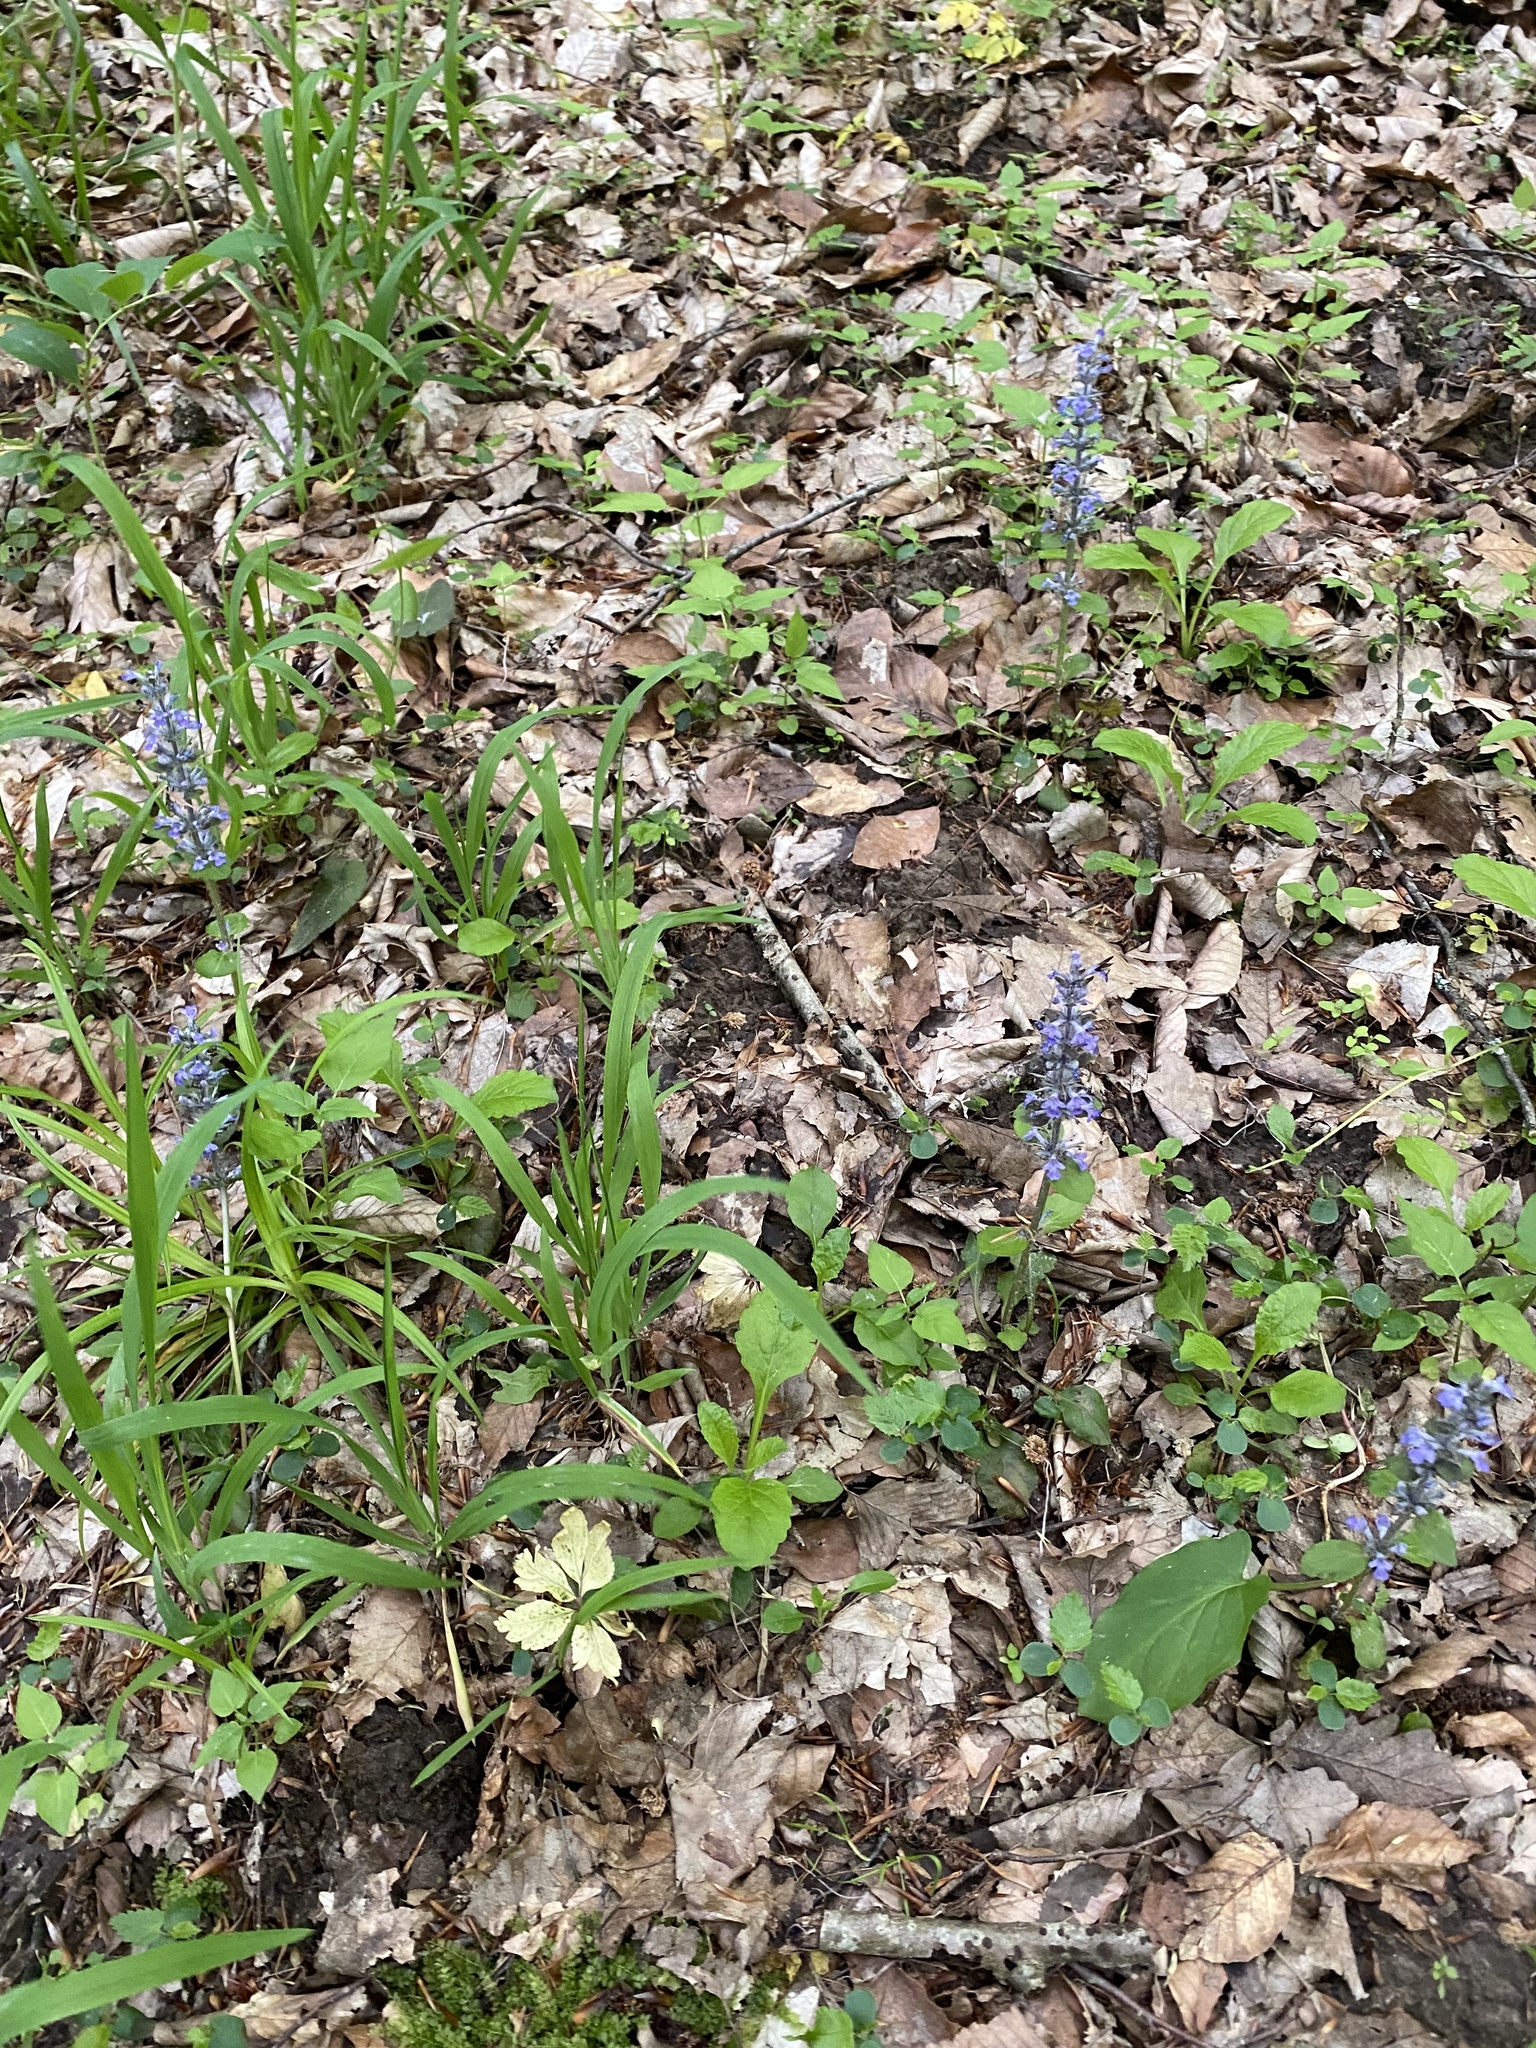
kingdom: Plantae
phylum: Tracheophyta
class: Magnoliopsida
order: Lamiales
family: Lamiaceae
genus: Ajuga
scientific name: Ajuga reptans
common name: Bugle
